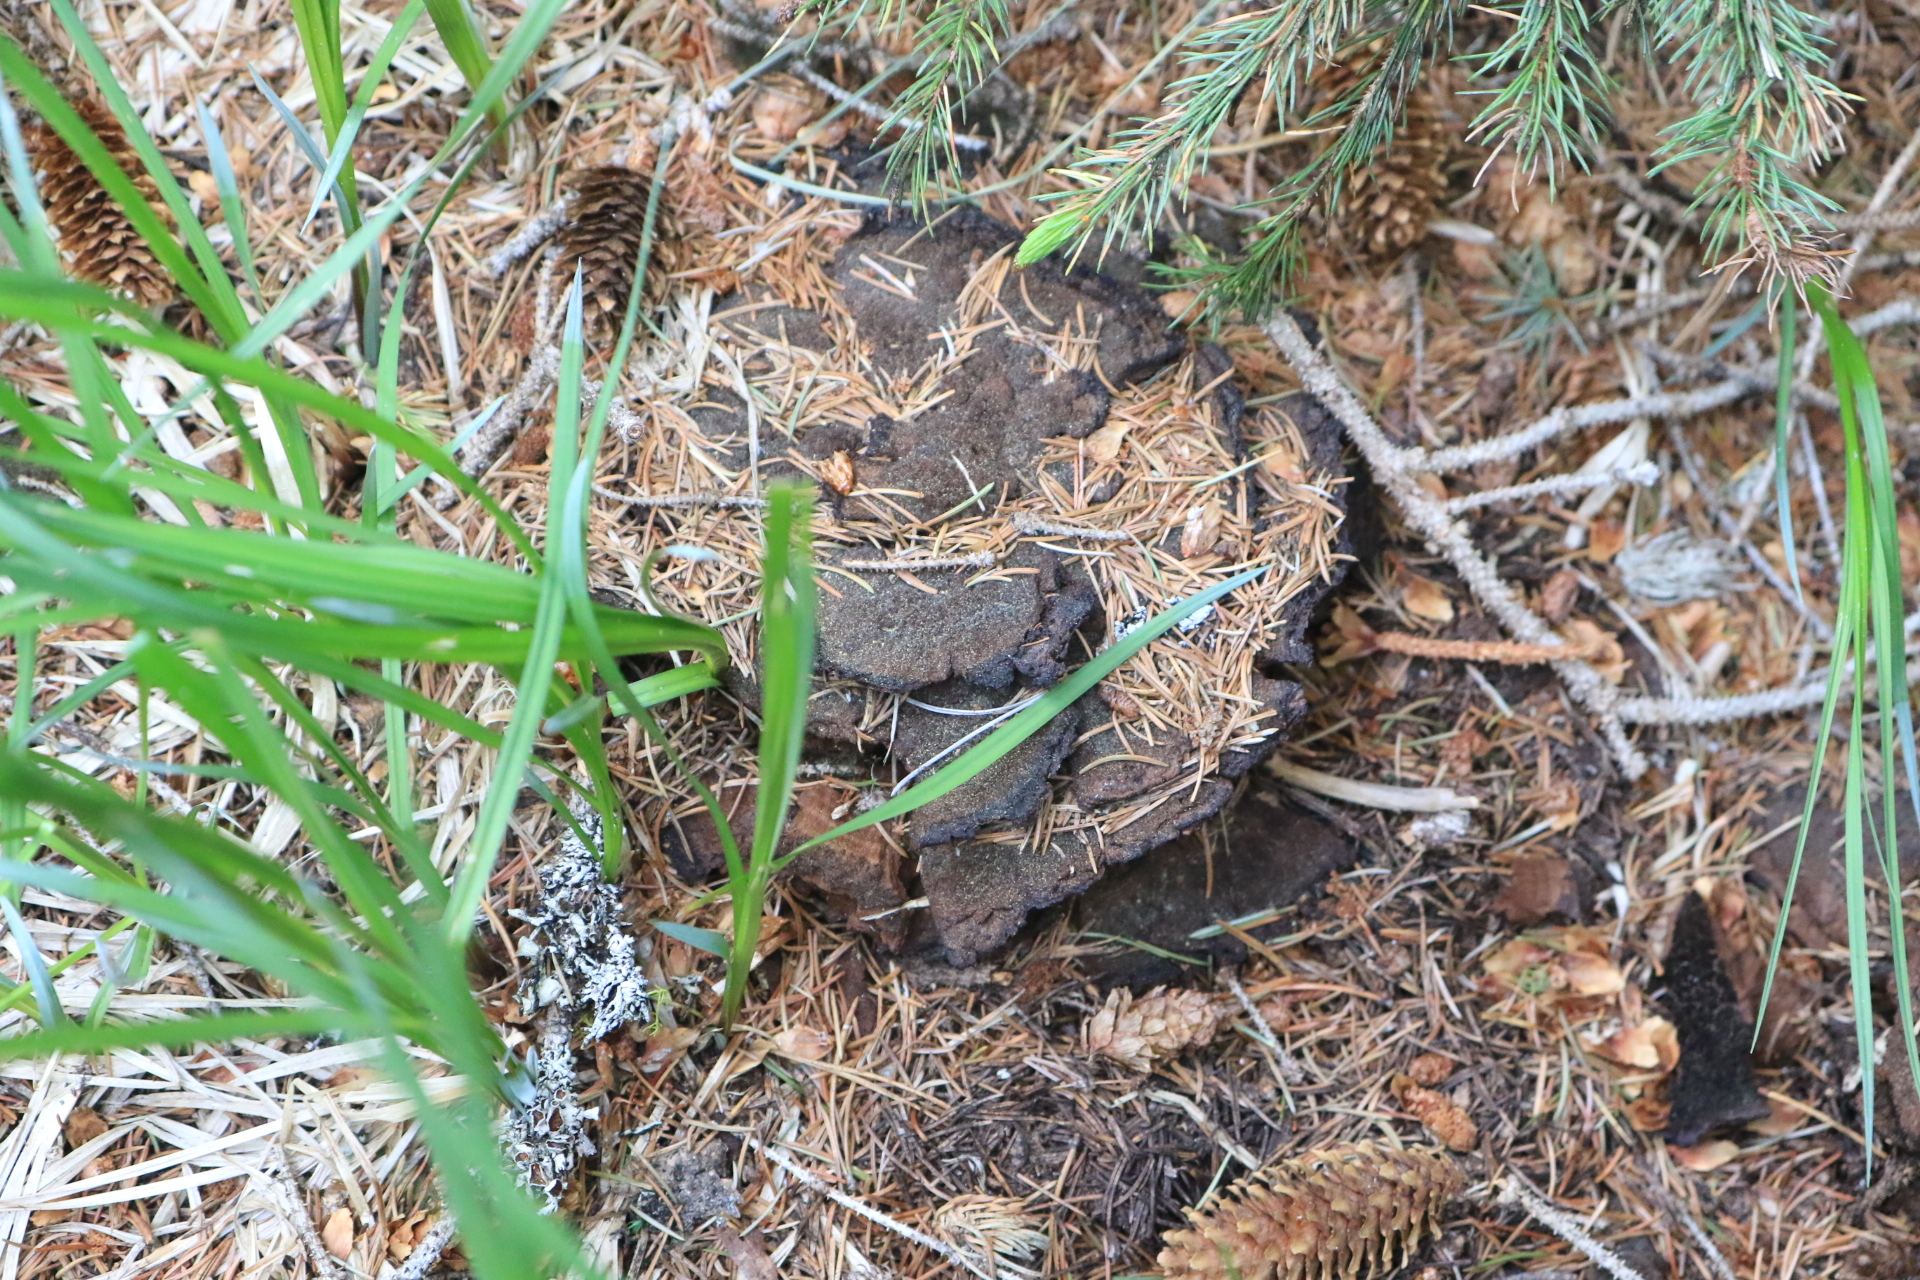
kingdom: Fungi
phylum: Basidiomycota
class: Agaricomycetes
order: Polyporales
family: Laetiporaceae
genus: Phaeolus
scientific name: Phaeolus schweinitzii
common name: Dyer's mazegill
